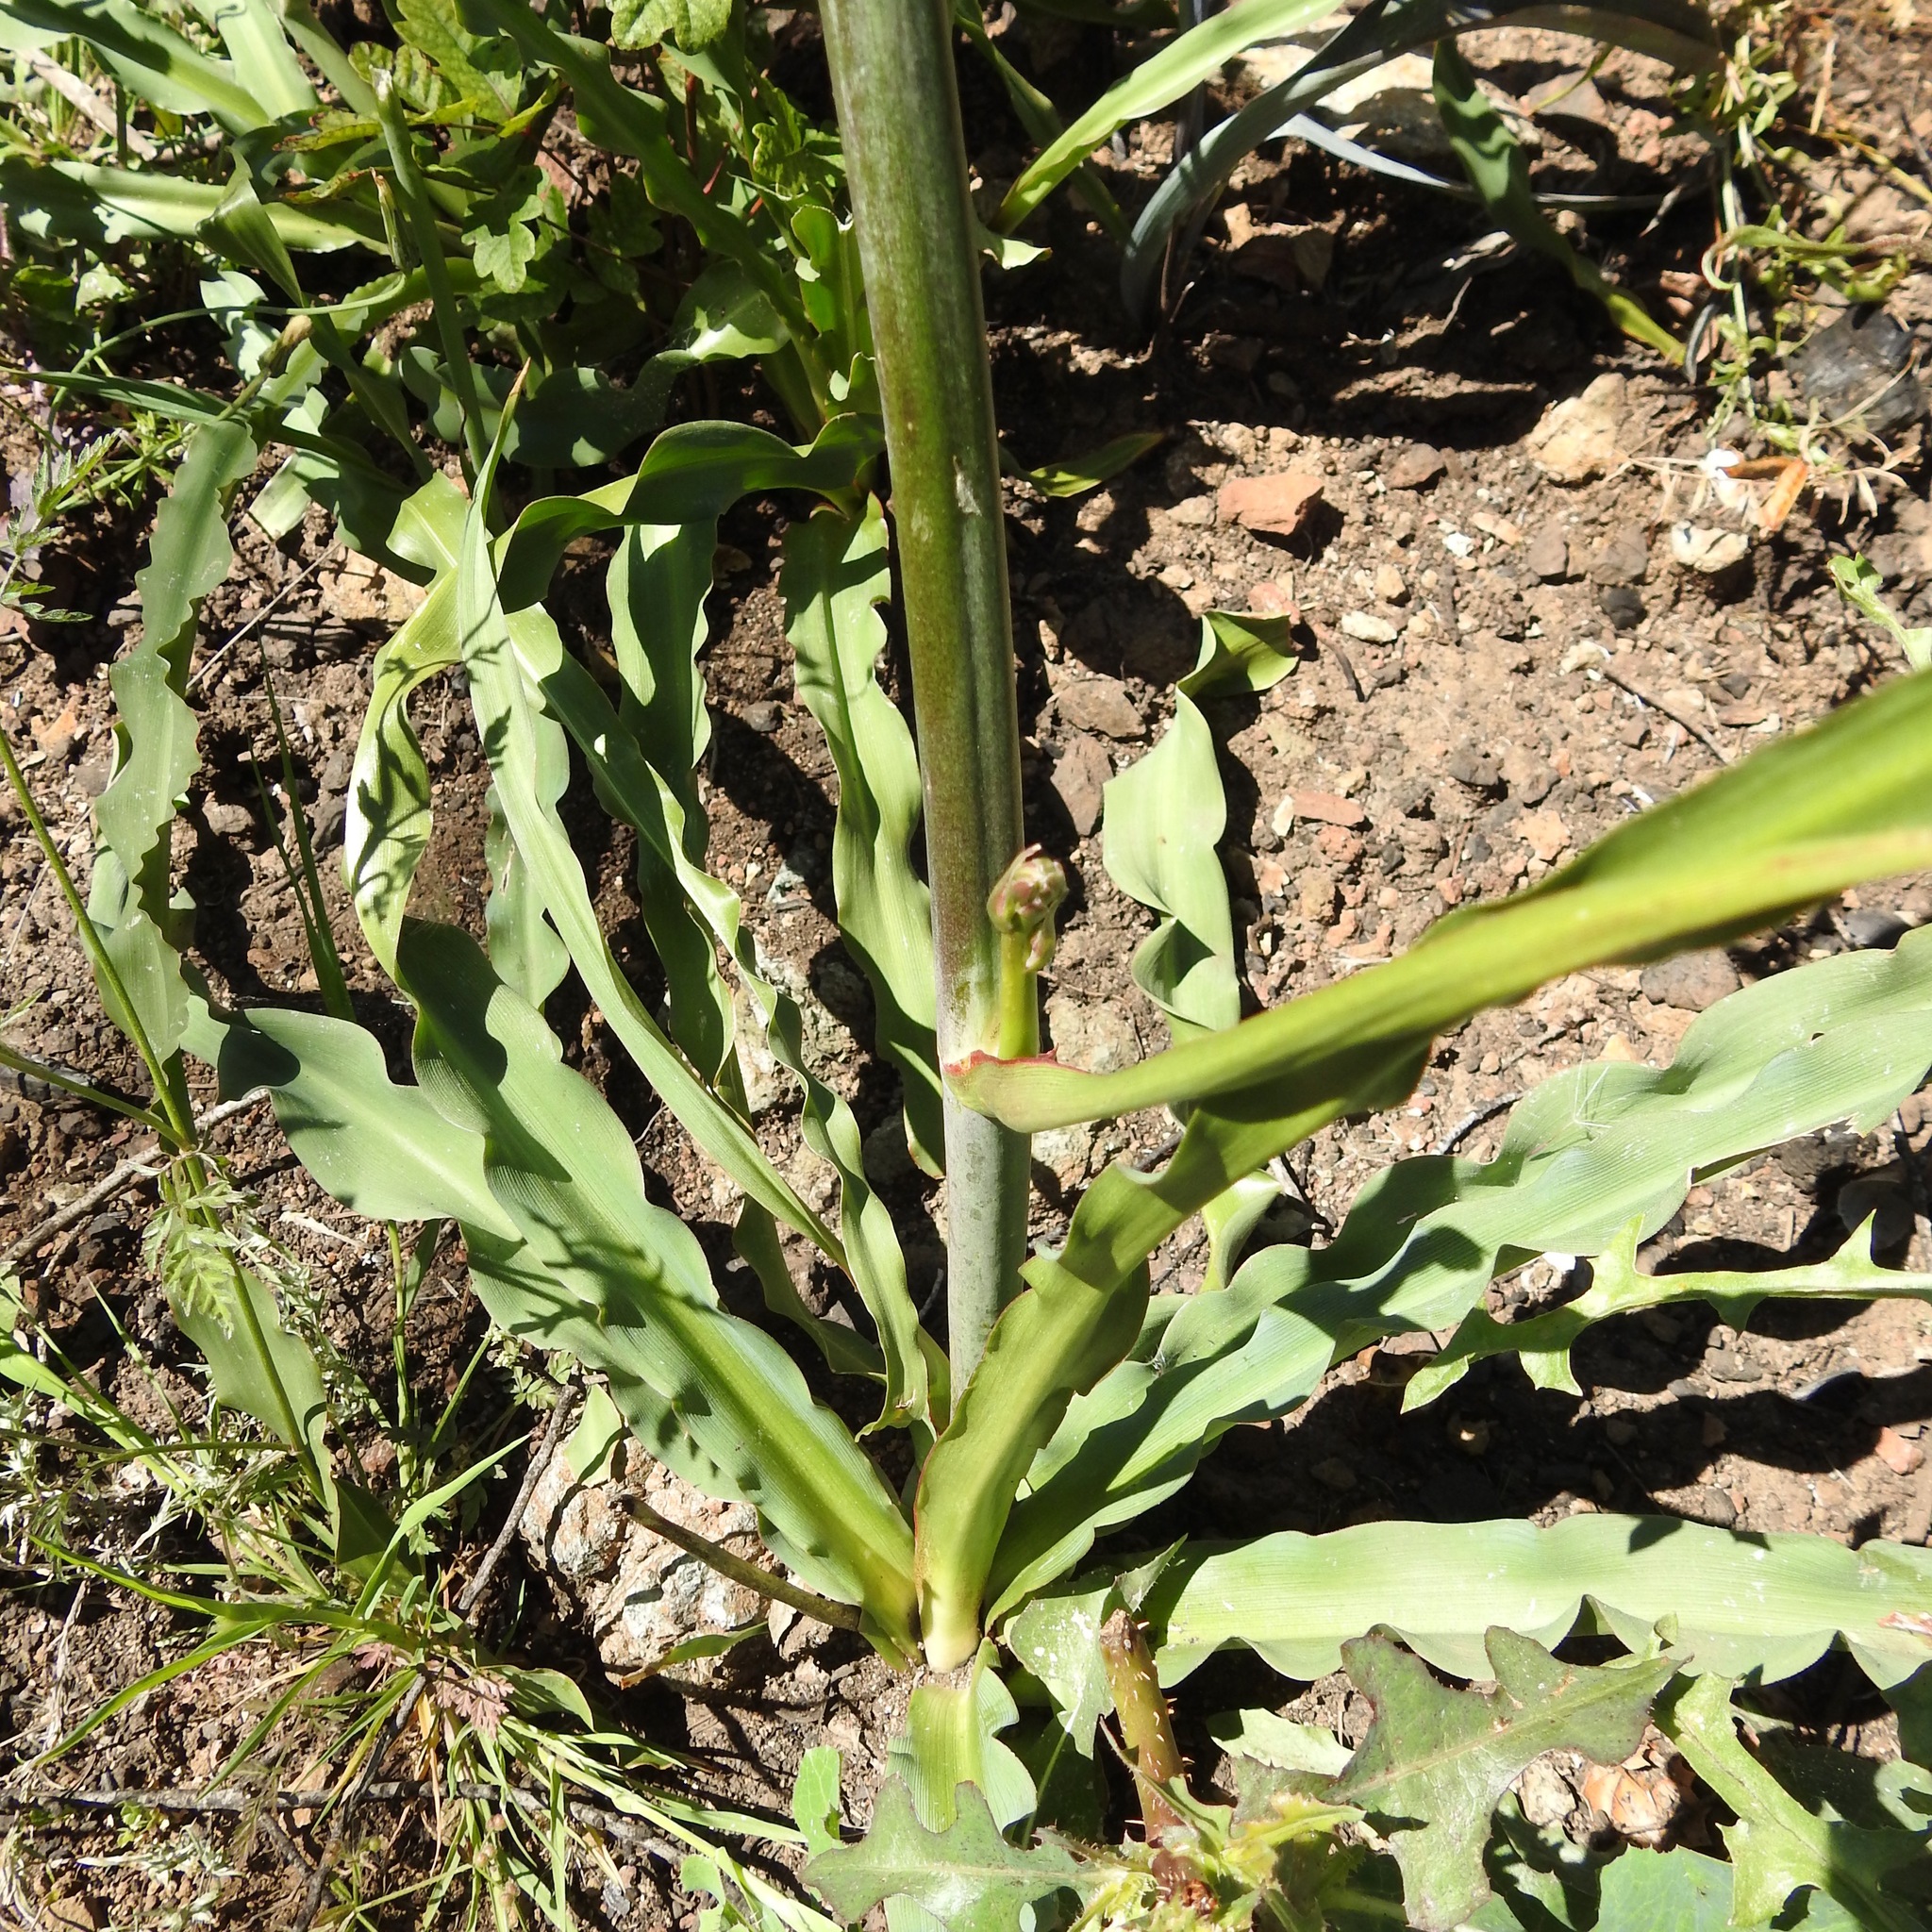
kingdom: Plantae
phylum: Tracheophyta
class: Liliopsida
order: Asparagales
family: Asparagaceae
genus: Chlorogalum
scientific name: Chlorogalum pomeridianum
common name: Amole
